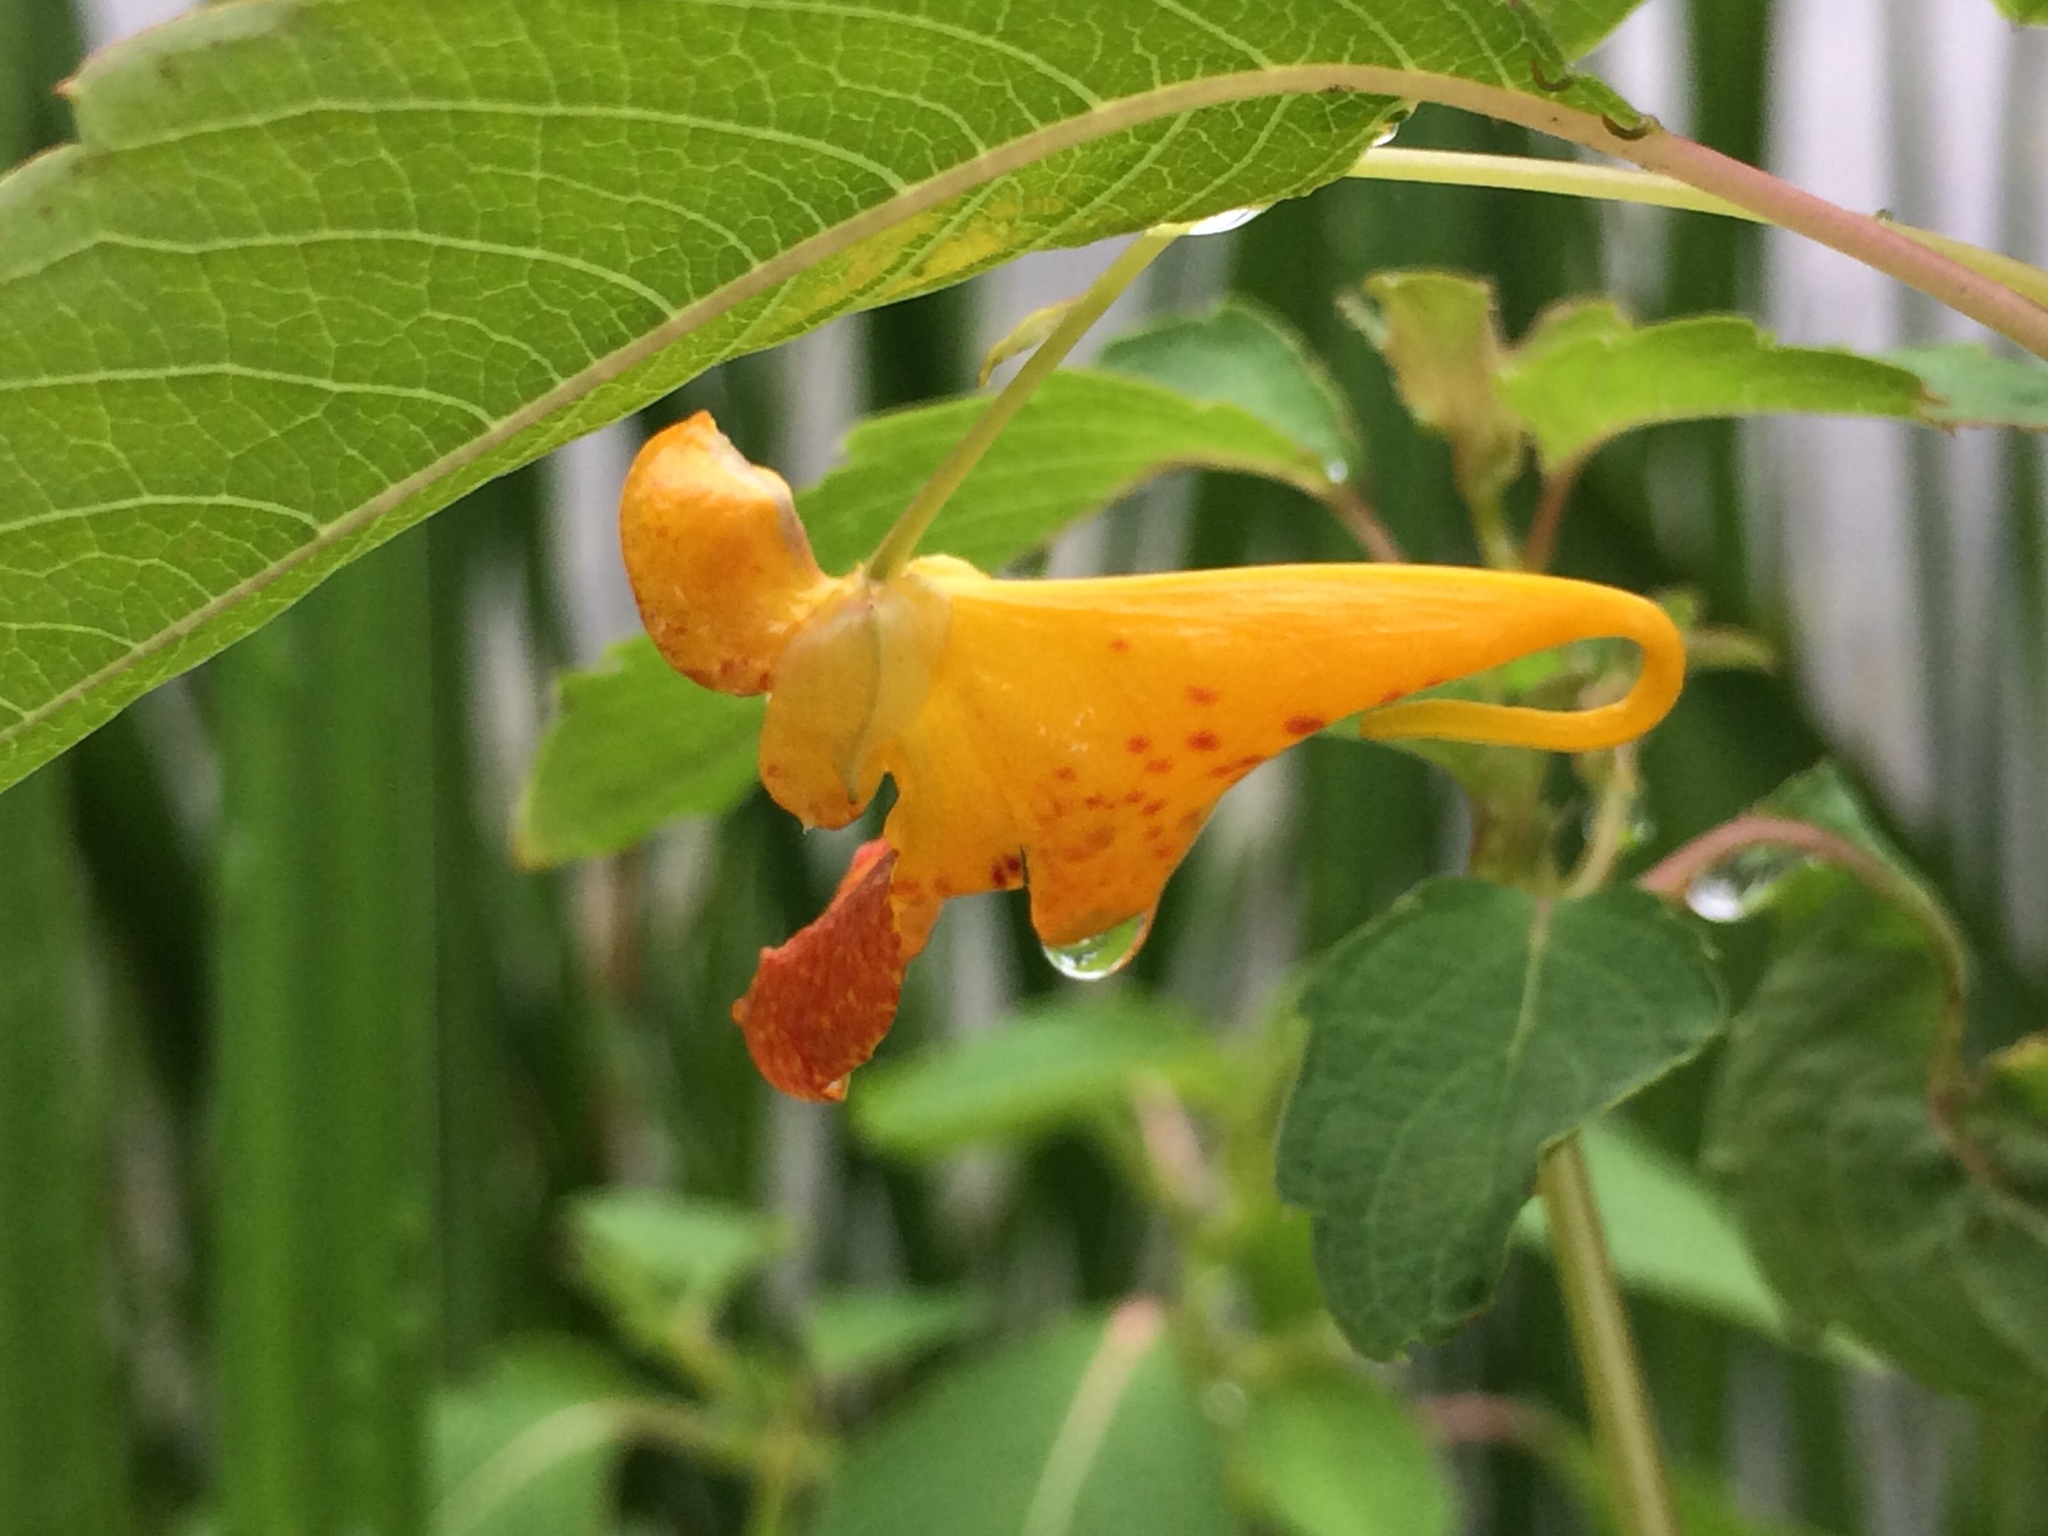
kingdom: Plantae
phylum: Tracheophyta
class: Magnoliopsida
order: Ericales
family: Balsaminaceae
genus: Impatiens
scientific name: Impatiens capensis
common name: Orange balsam
